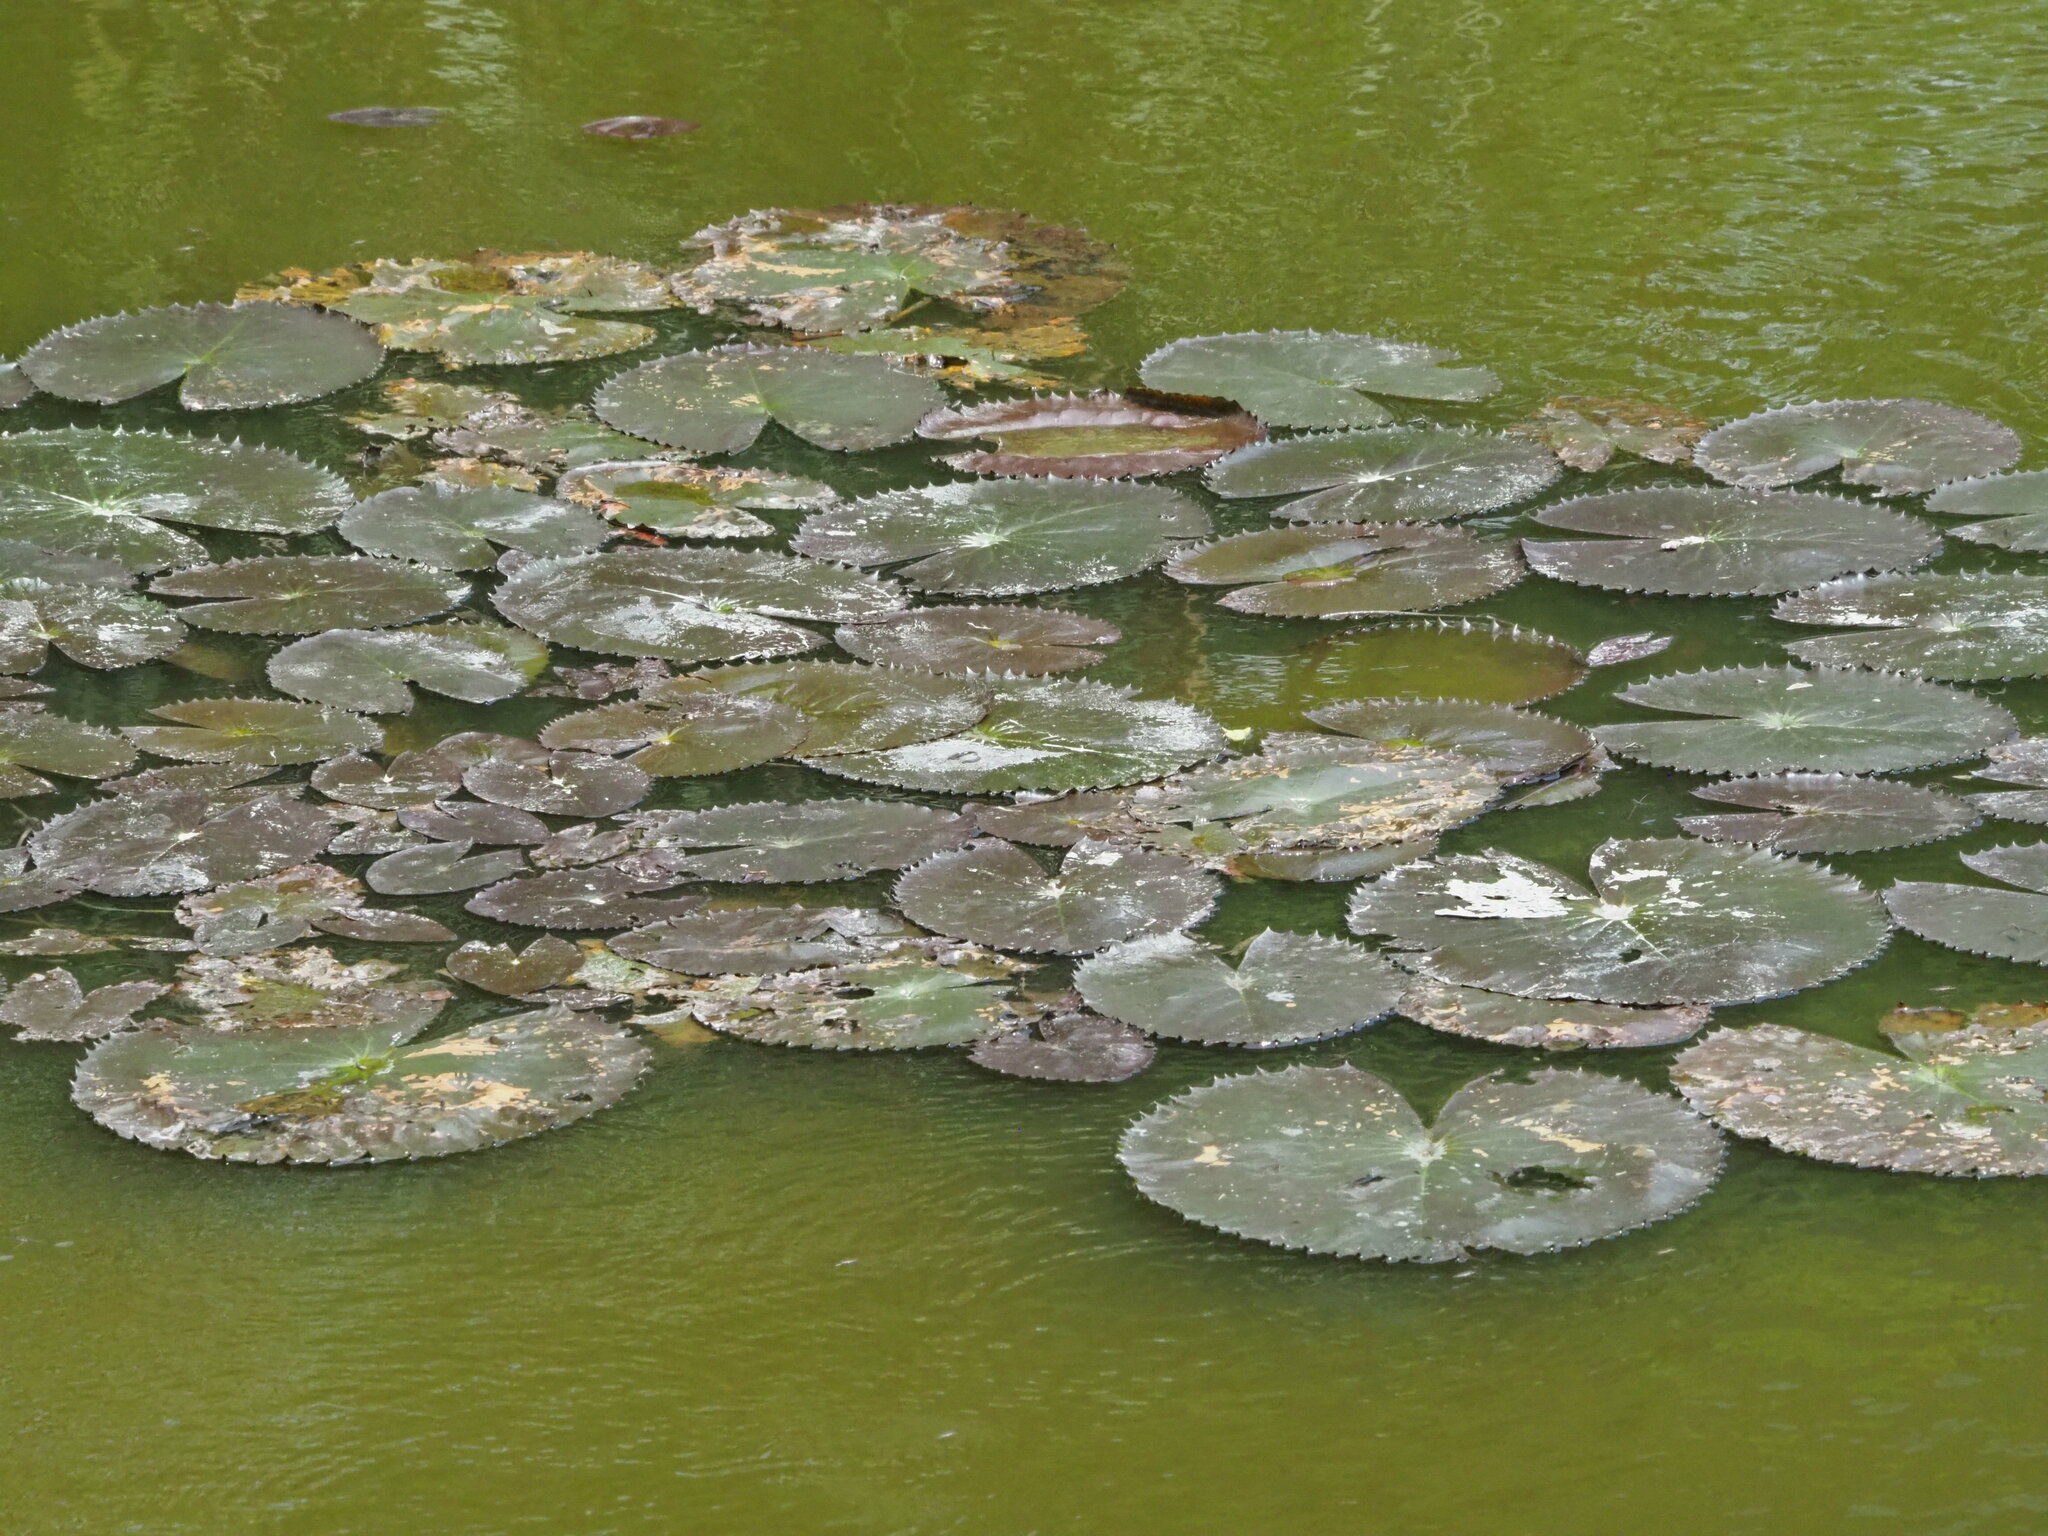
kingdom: Plantae
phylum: Tracheophyta
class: Magnoliopsida
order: Nymphaeales
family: Nymphaeaceae
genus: Nymphaea
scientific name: Nymphaea lotus
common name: White egyptian lotus
